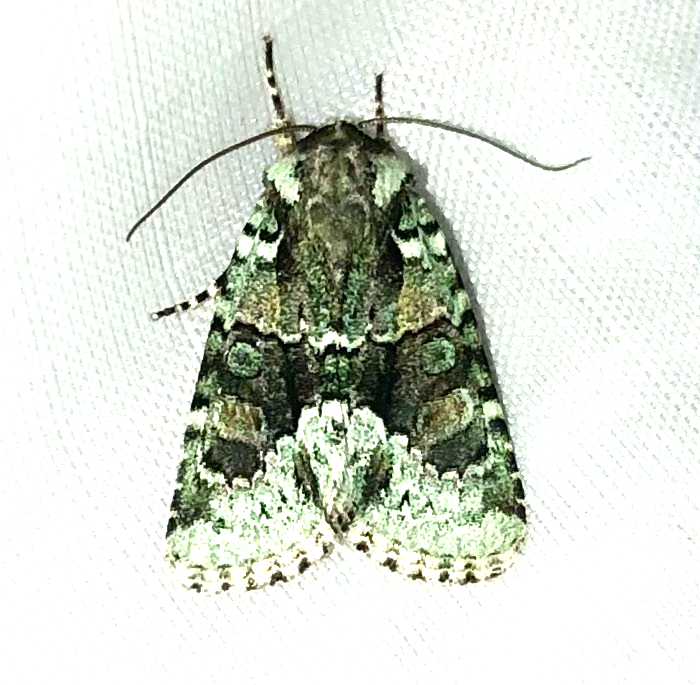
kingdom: Animalia
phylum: Arthropoda
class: Insecta
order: Lepidoptera
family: Noctuidae
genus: Lacinipolia
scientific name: Lacinipolia explicata
